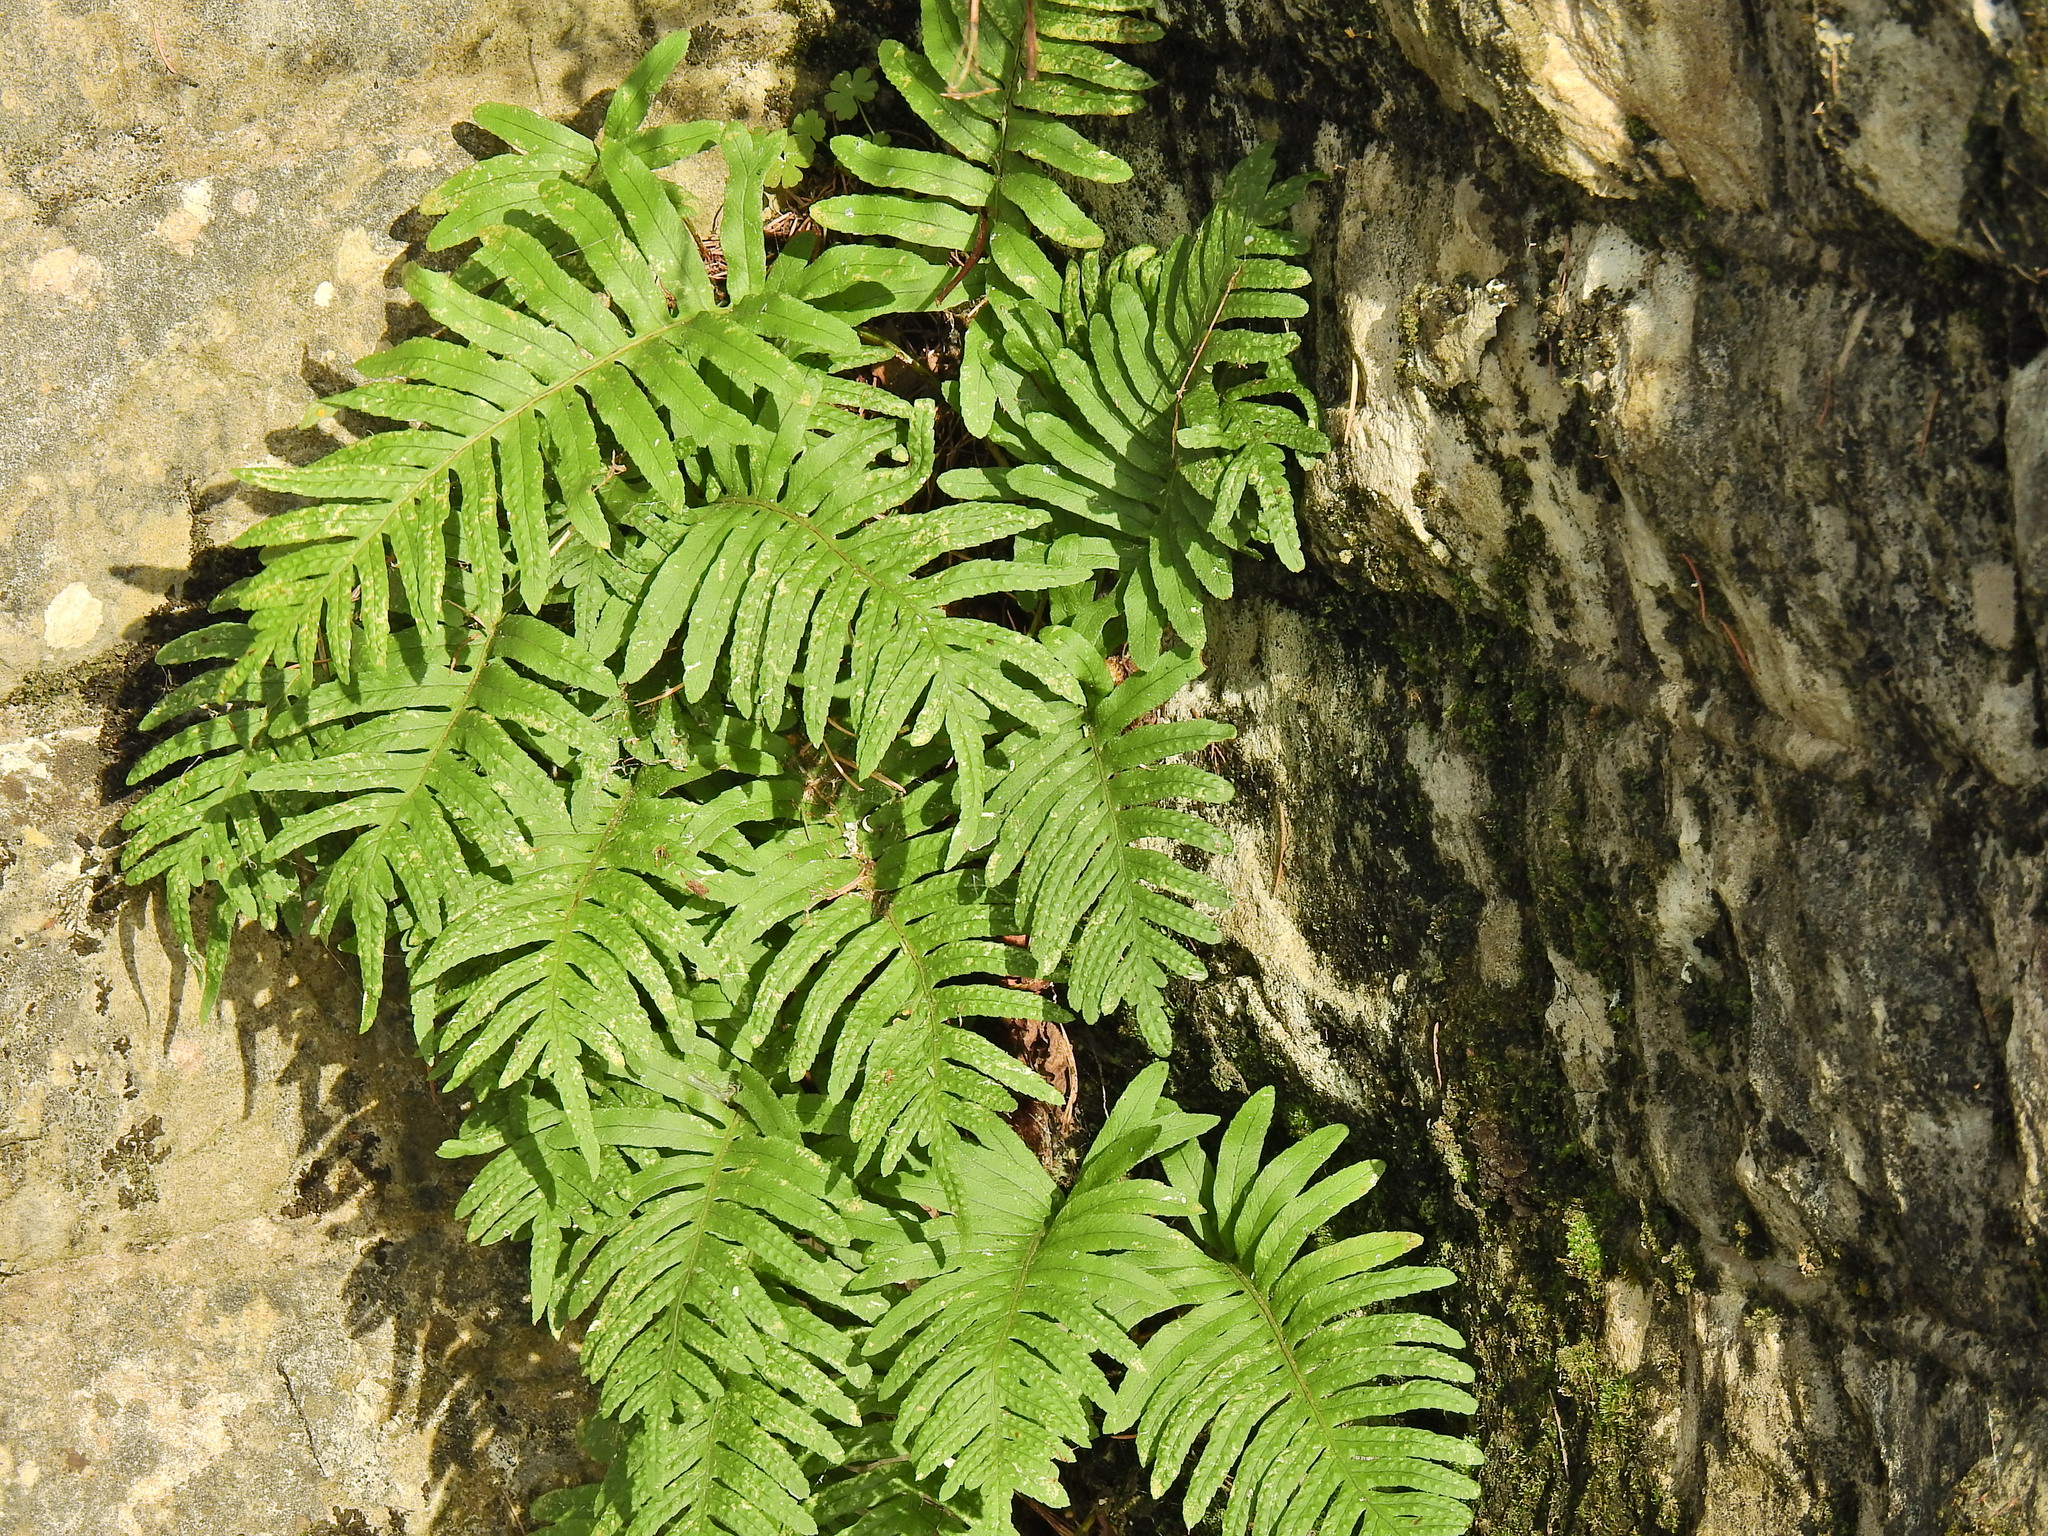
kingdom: Plantae
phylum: Tracheophyta
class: Polypodiopsida
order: Polypodiales
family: Polypodiaceae
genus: Polypodium
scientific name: Polypodium cambricum
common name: Southern polypody
